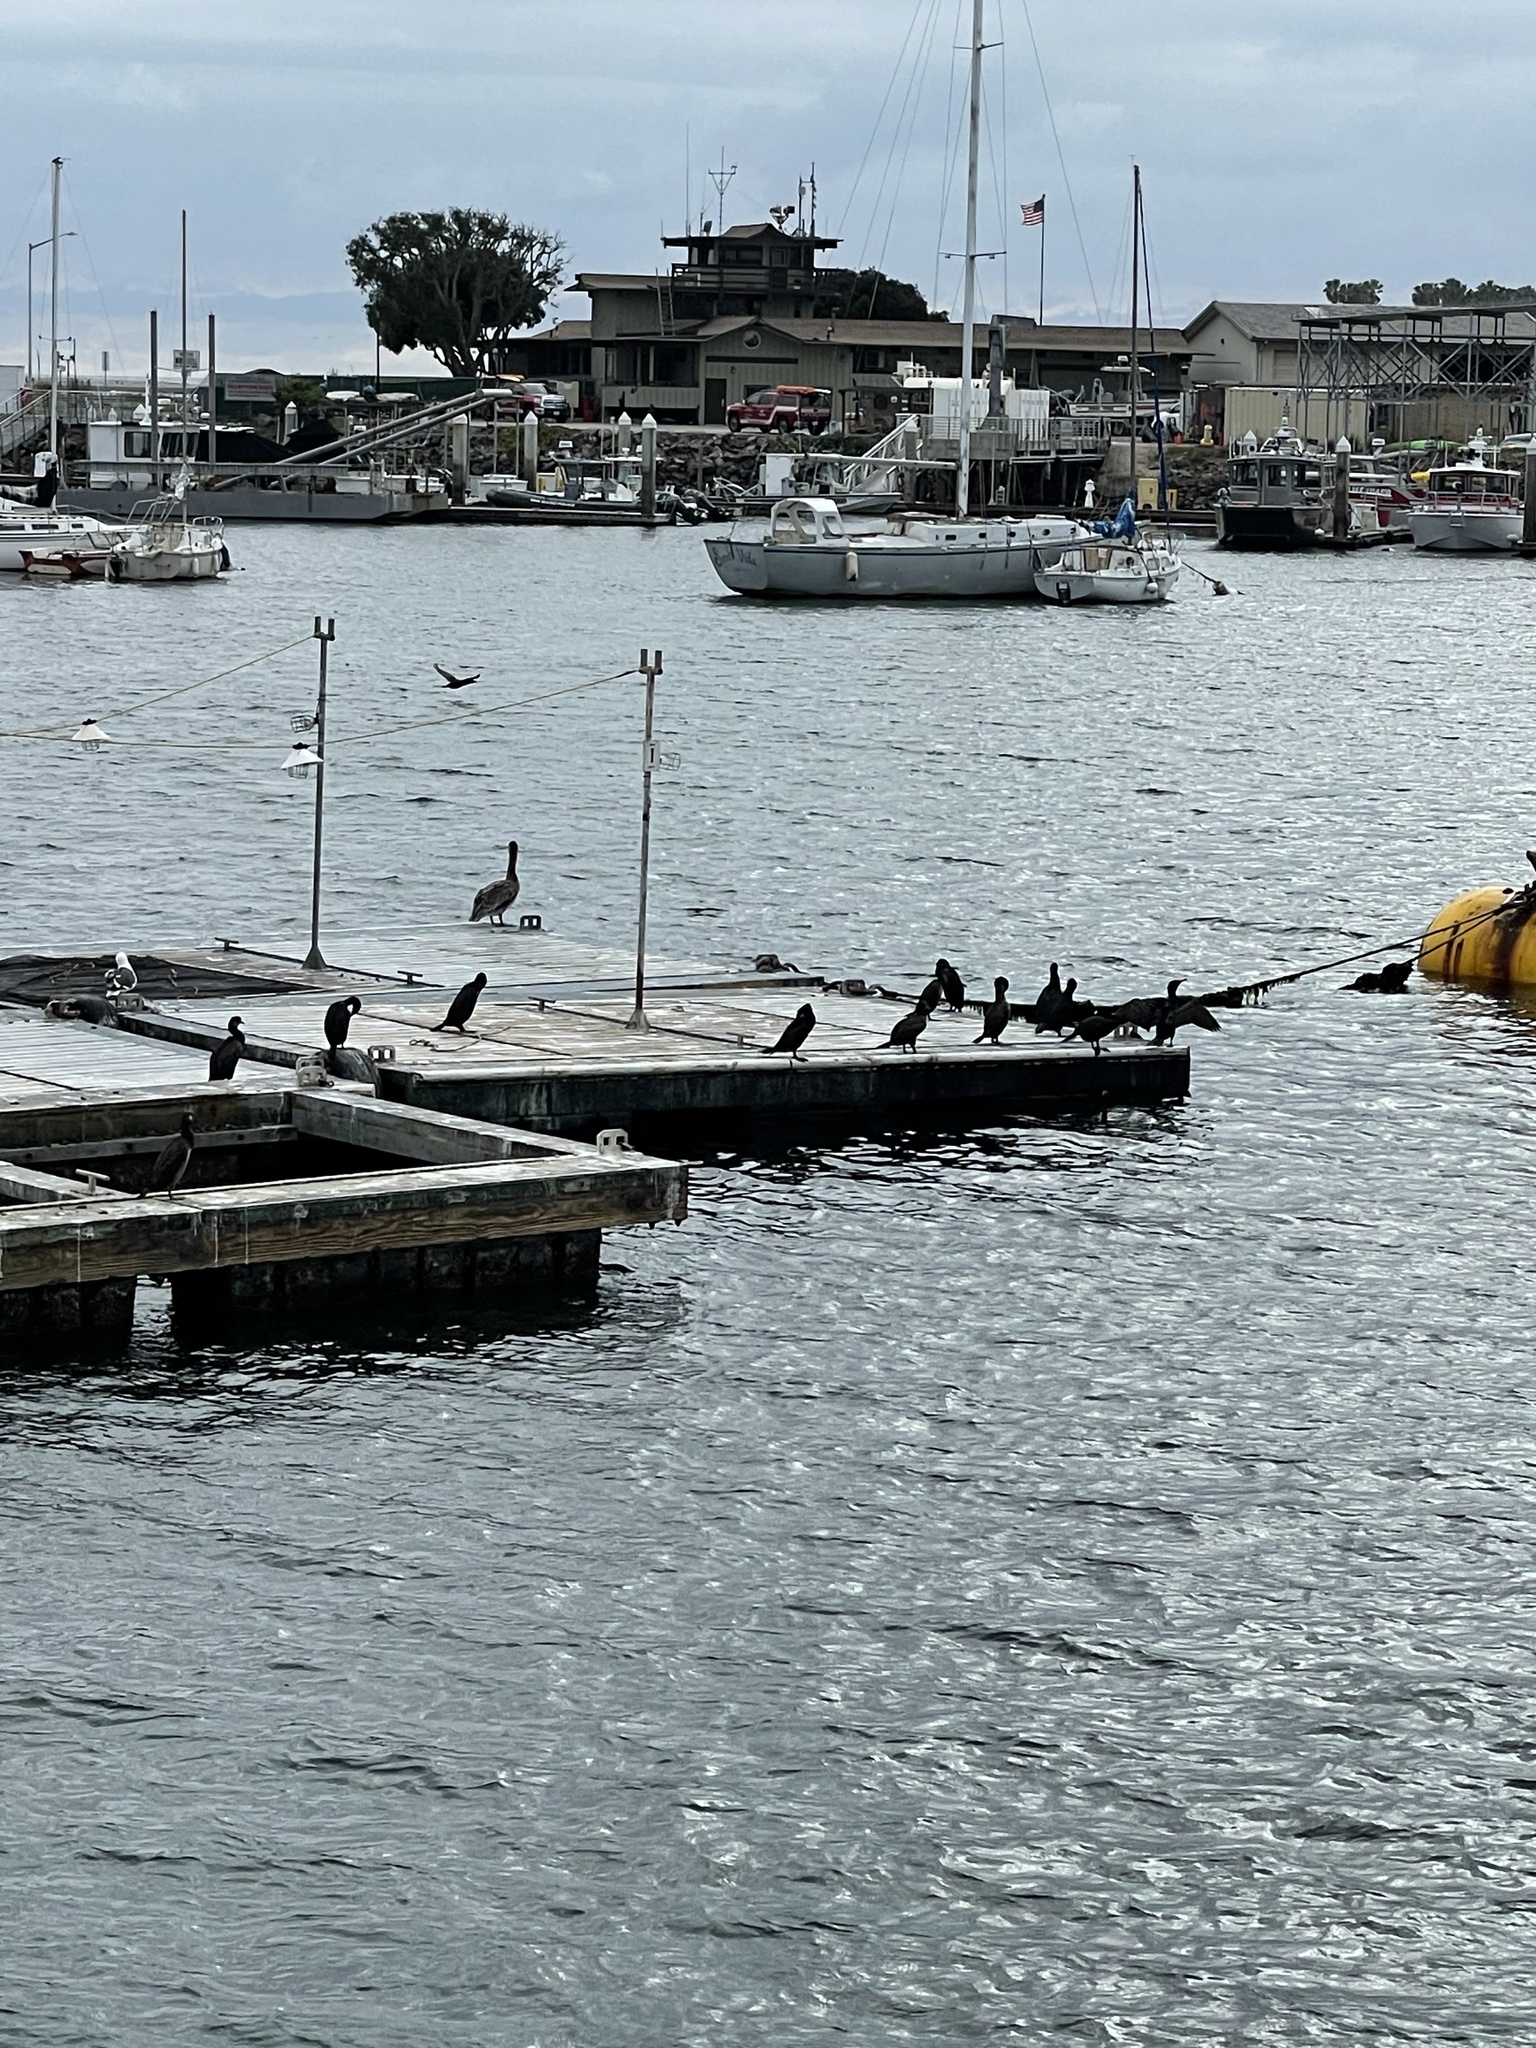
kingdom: Animalia
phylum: Chordata
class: Aves
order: Suliformes
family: Phalacrocoracidae
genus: Phalacrocorax
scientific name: Phalacrocorax auritus
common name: Double-crested cormorant
